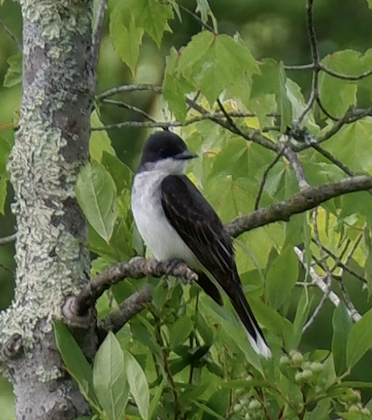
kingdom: Animalia
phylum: Chordata
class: Aves
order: Passeriformes
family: Tyrannidae
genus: Tyrannus
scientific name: Tyrannus tyrannus
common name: Eastern kingbird
